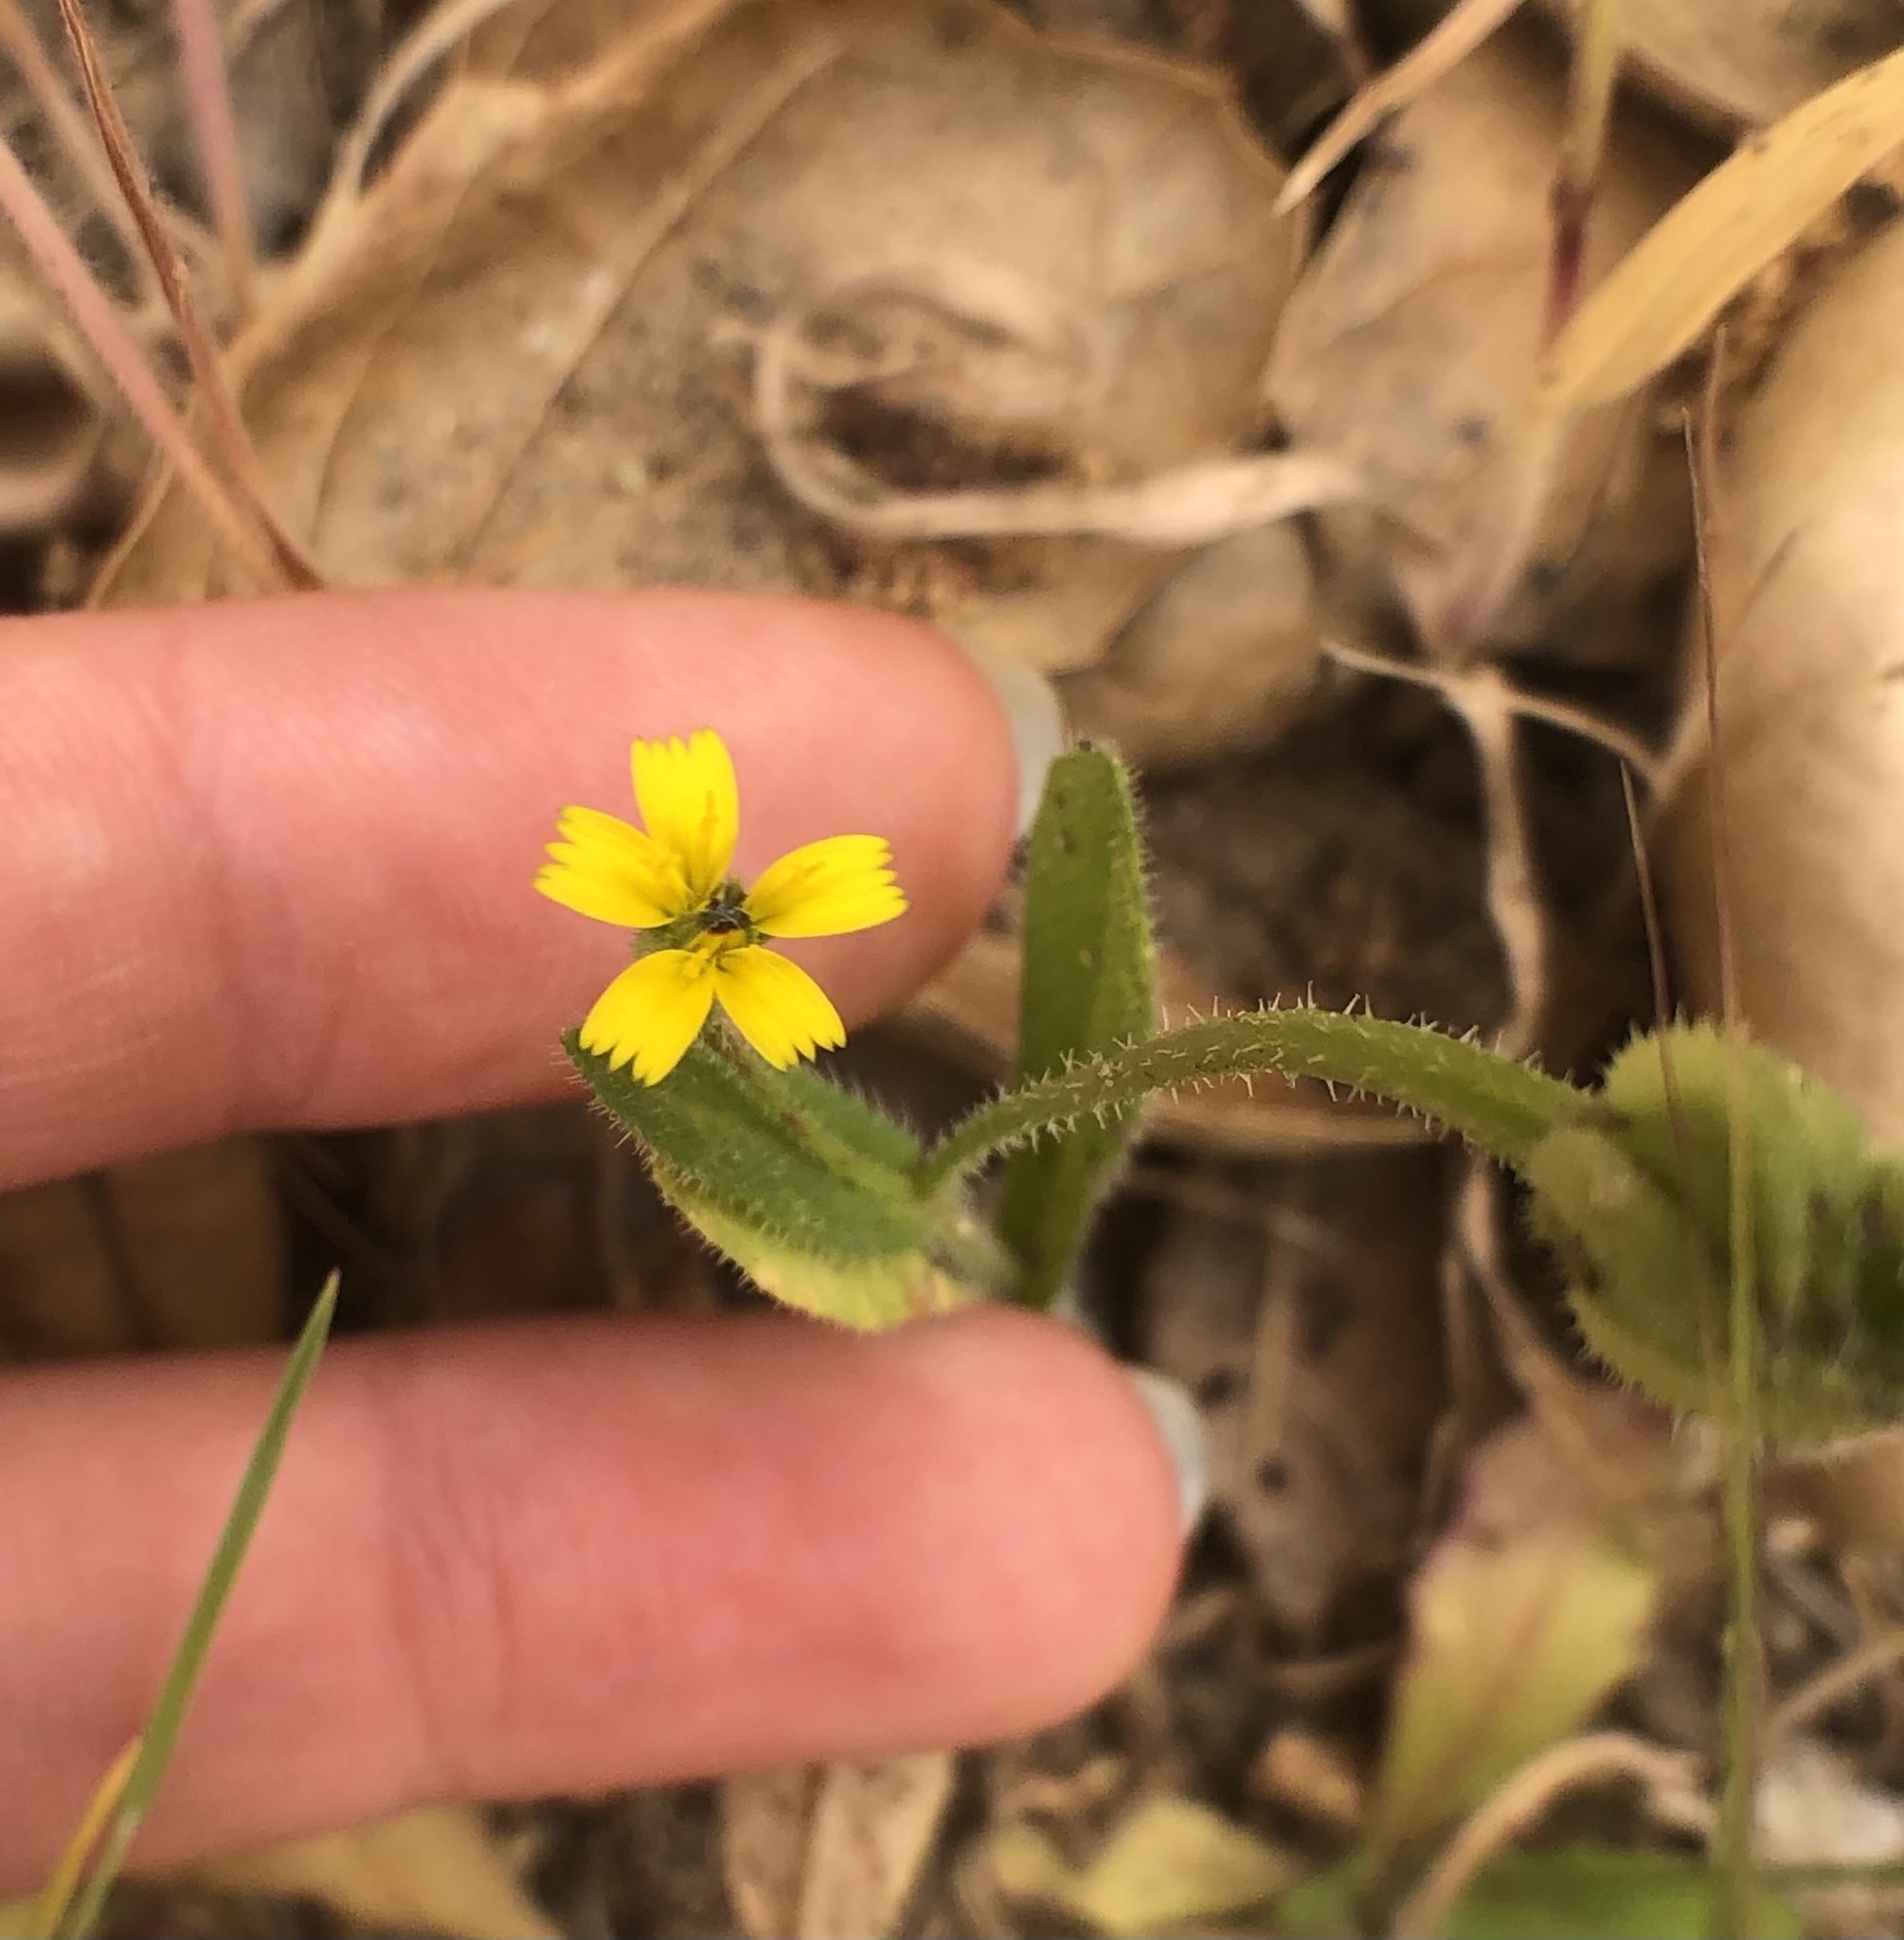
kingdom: Plantae
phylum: Tracheophyta
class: Magnoliopsida
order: Asterales
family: Asteraceae
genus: Hedypnois
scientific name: Hedypnois rhagadioloides
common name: Cretan weed
